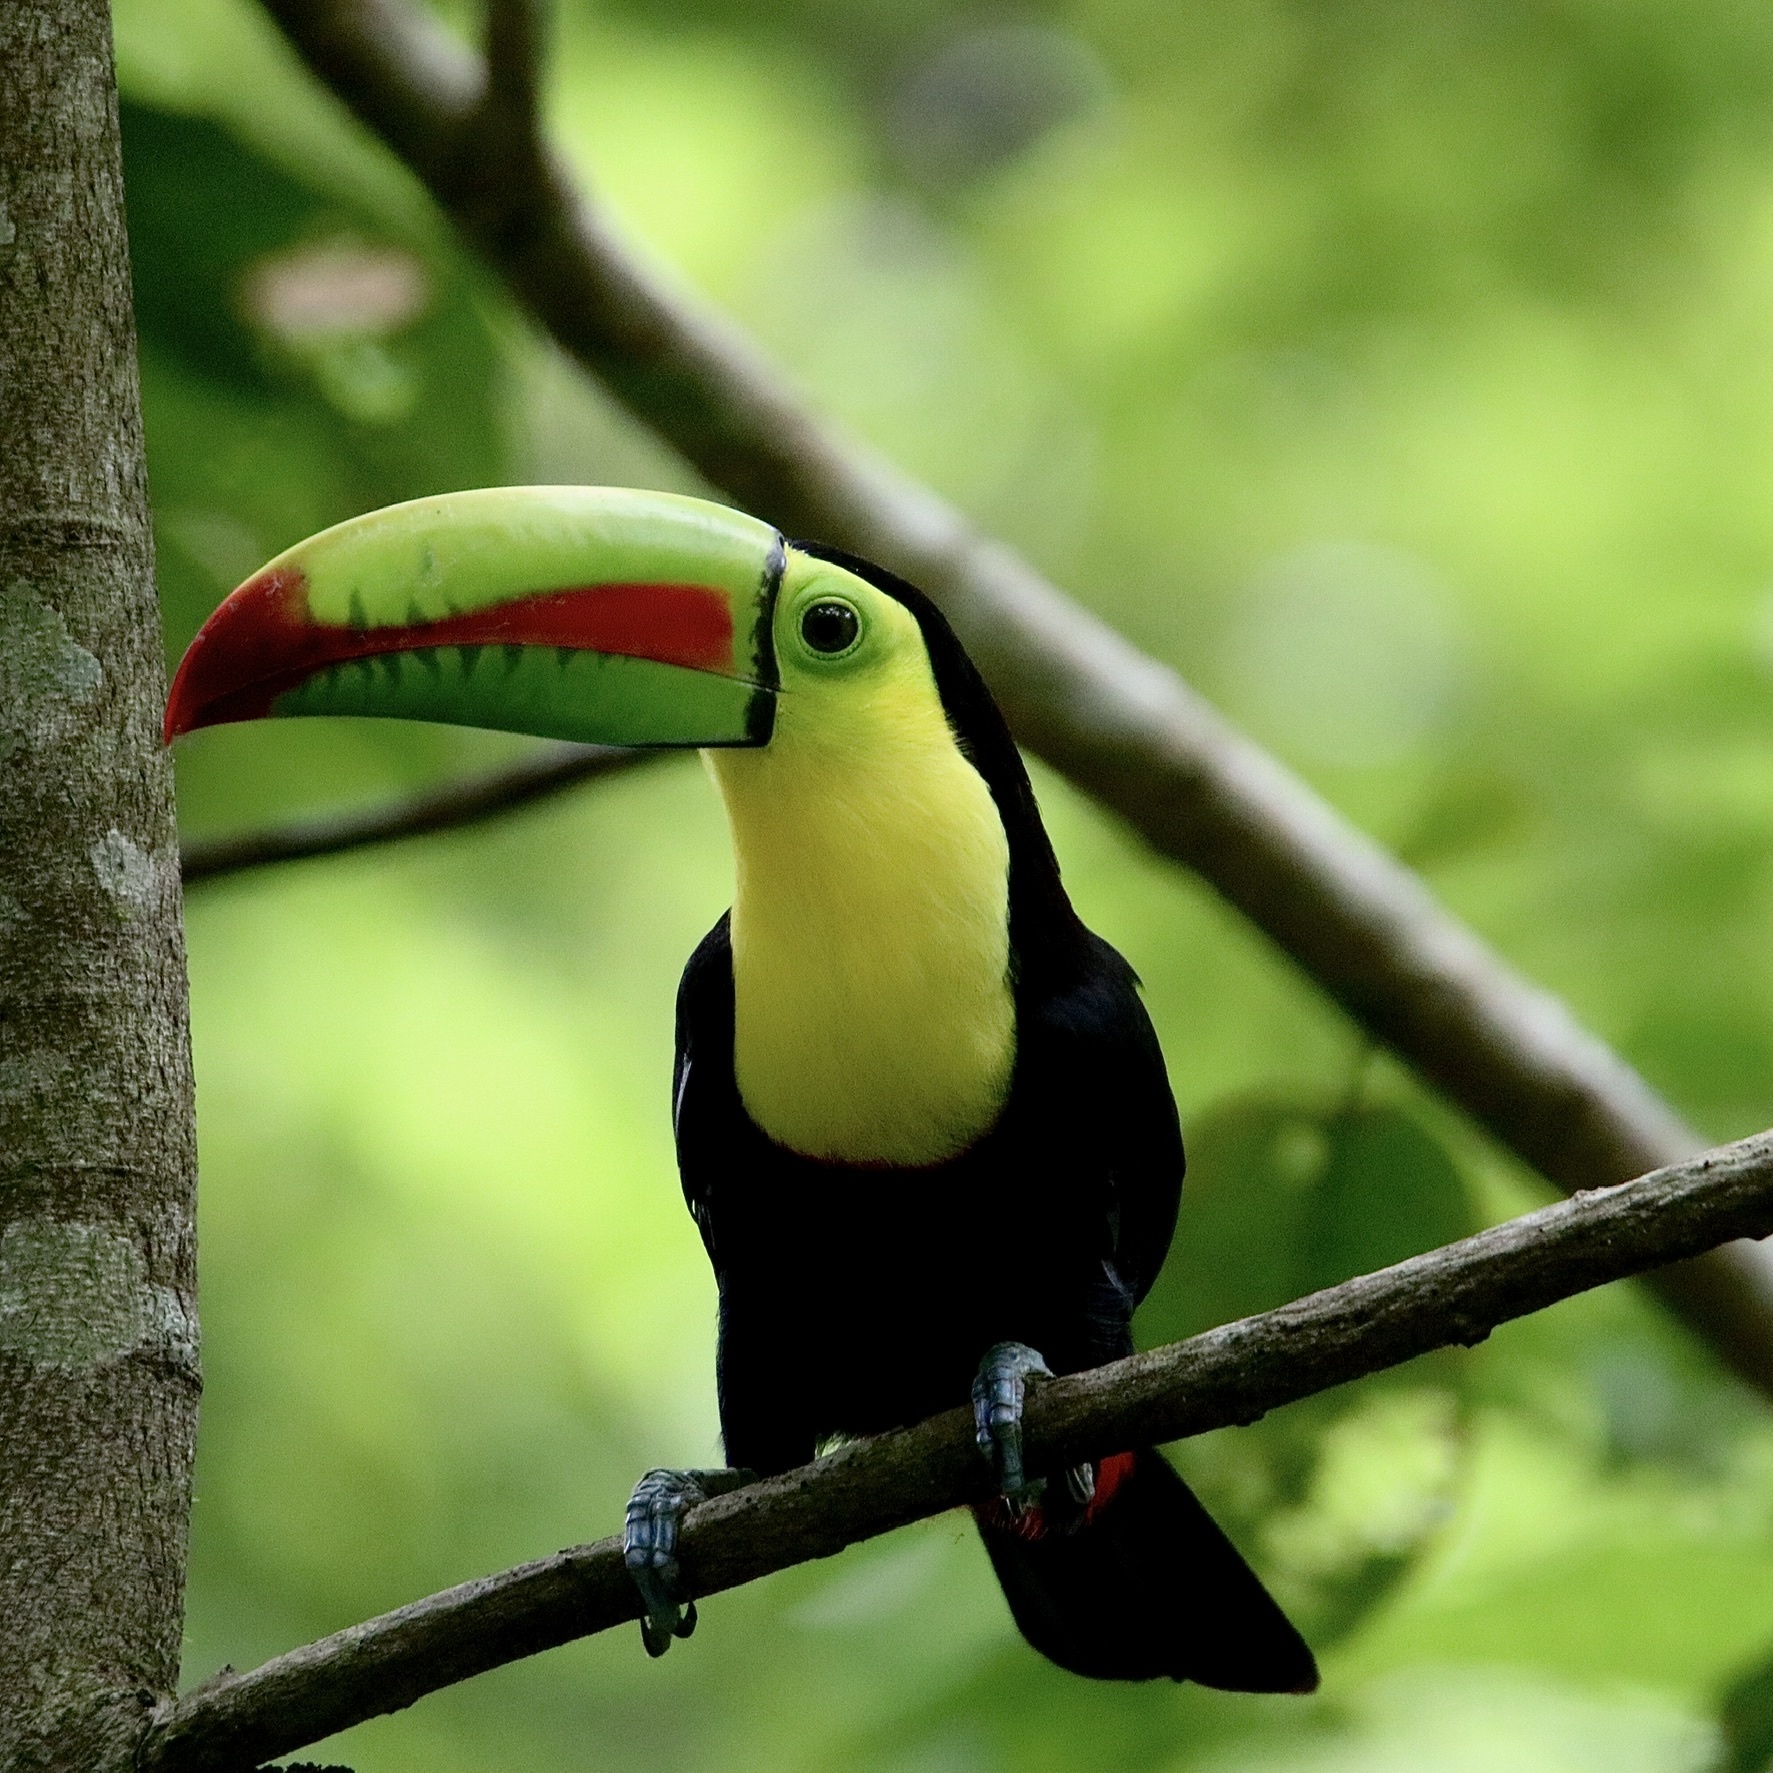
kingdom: Animalia
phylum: Chordata
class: Aves
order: Piciformes
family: Ramphastidae
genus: Ramphastos
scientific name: Ramphastos sulfuratus
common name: Keel-billed toucan
